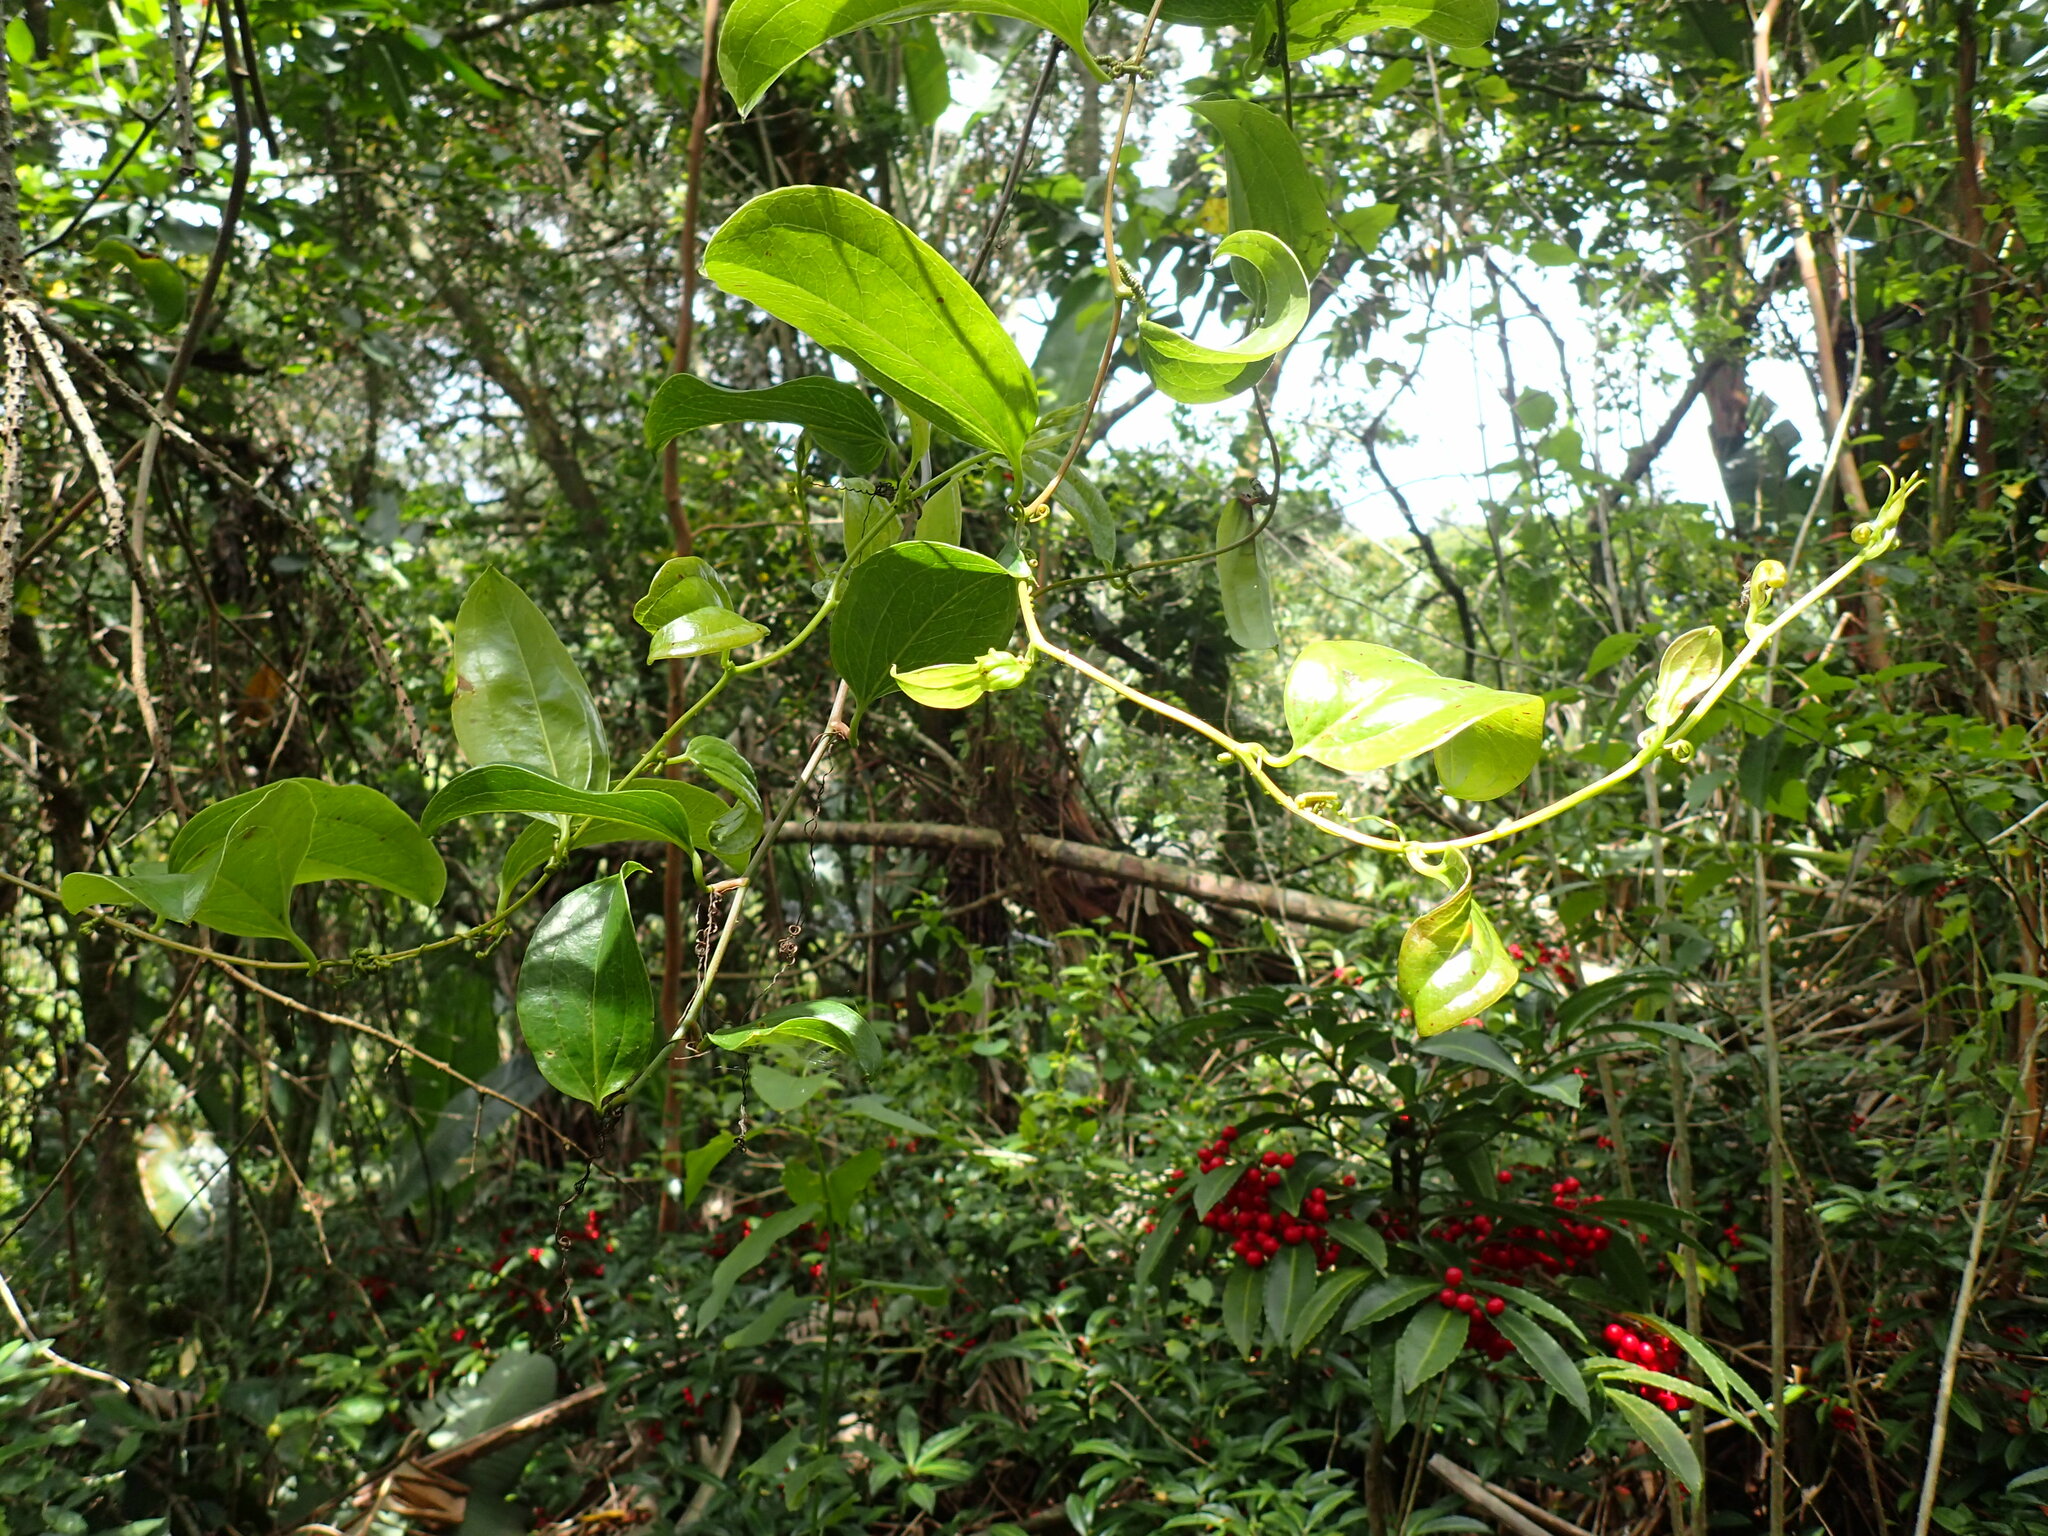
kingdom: Plantae
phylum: Tracheophyta
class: Liliopsida
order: Liliales
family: Smilacaceae
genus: Smilax
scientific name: Smilax anceps
